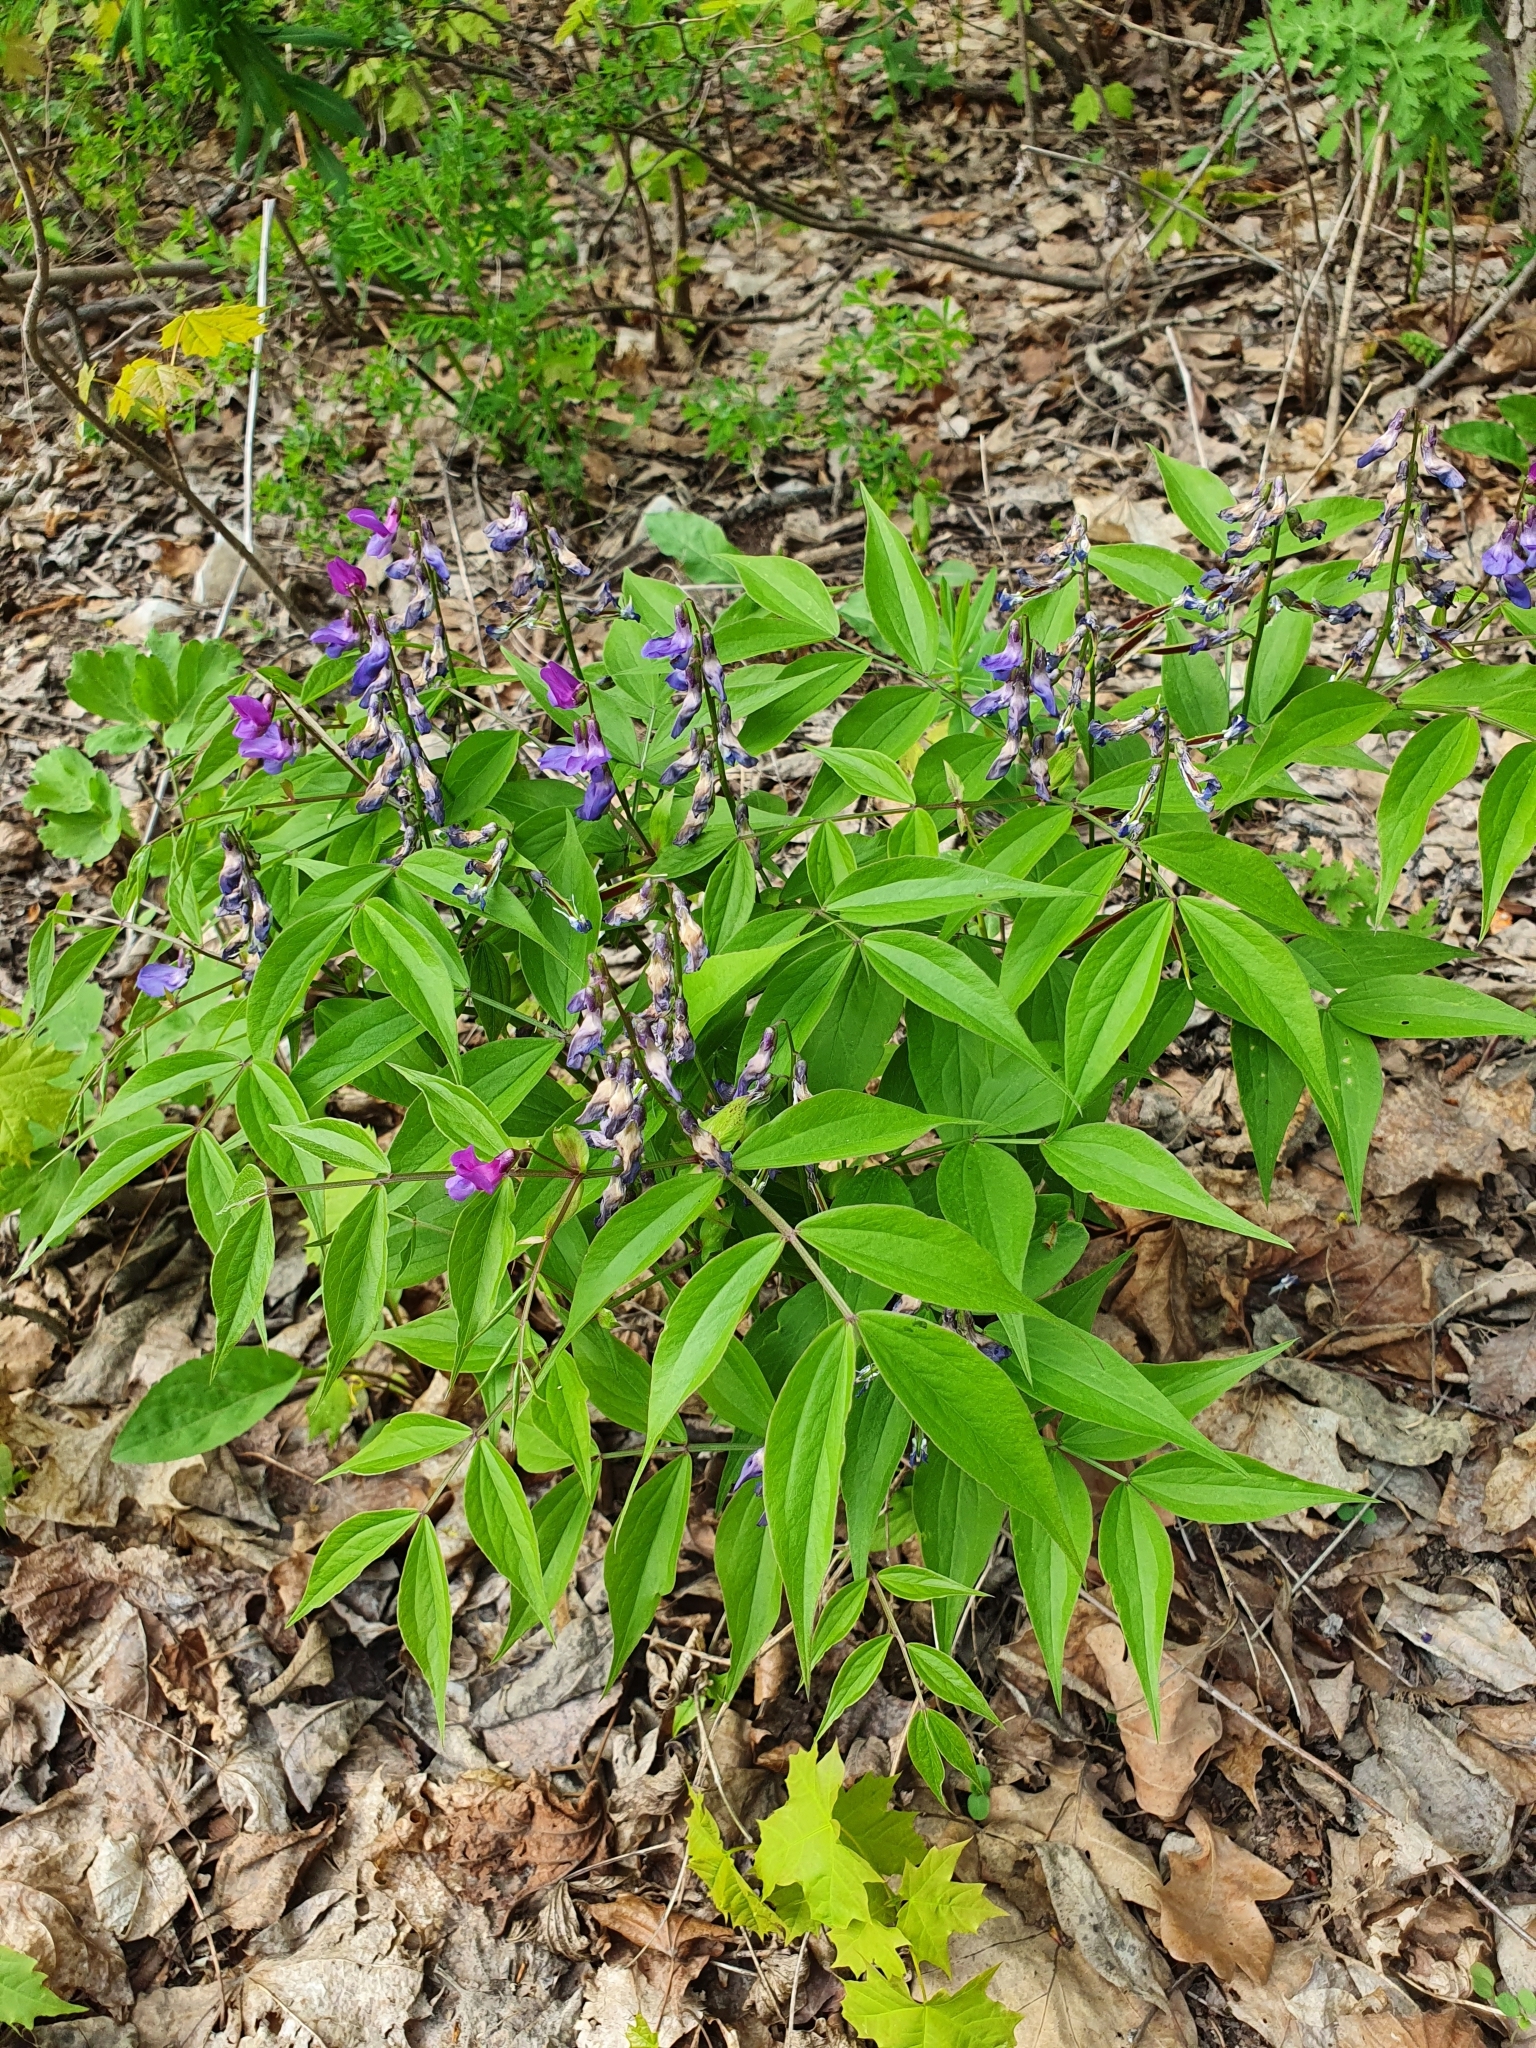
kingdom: Plantae
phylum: Tracheophyta
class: Magnoliopsida
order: Fabales
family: Fabaceae
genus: Lathyrus
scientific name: Lathyrus vernus
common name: Spring pea
